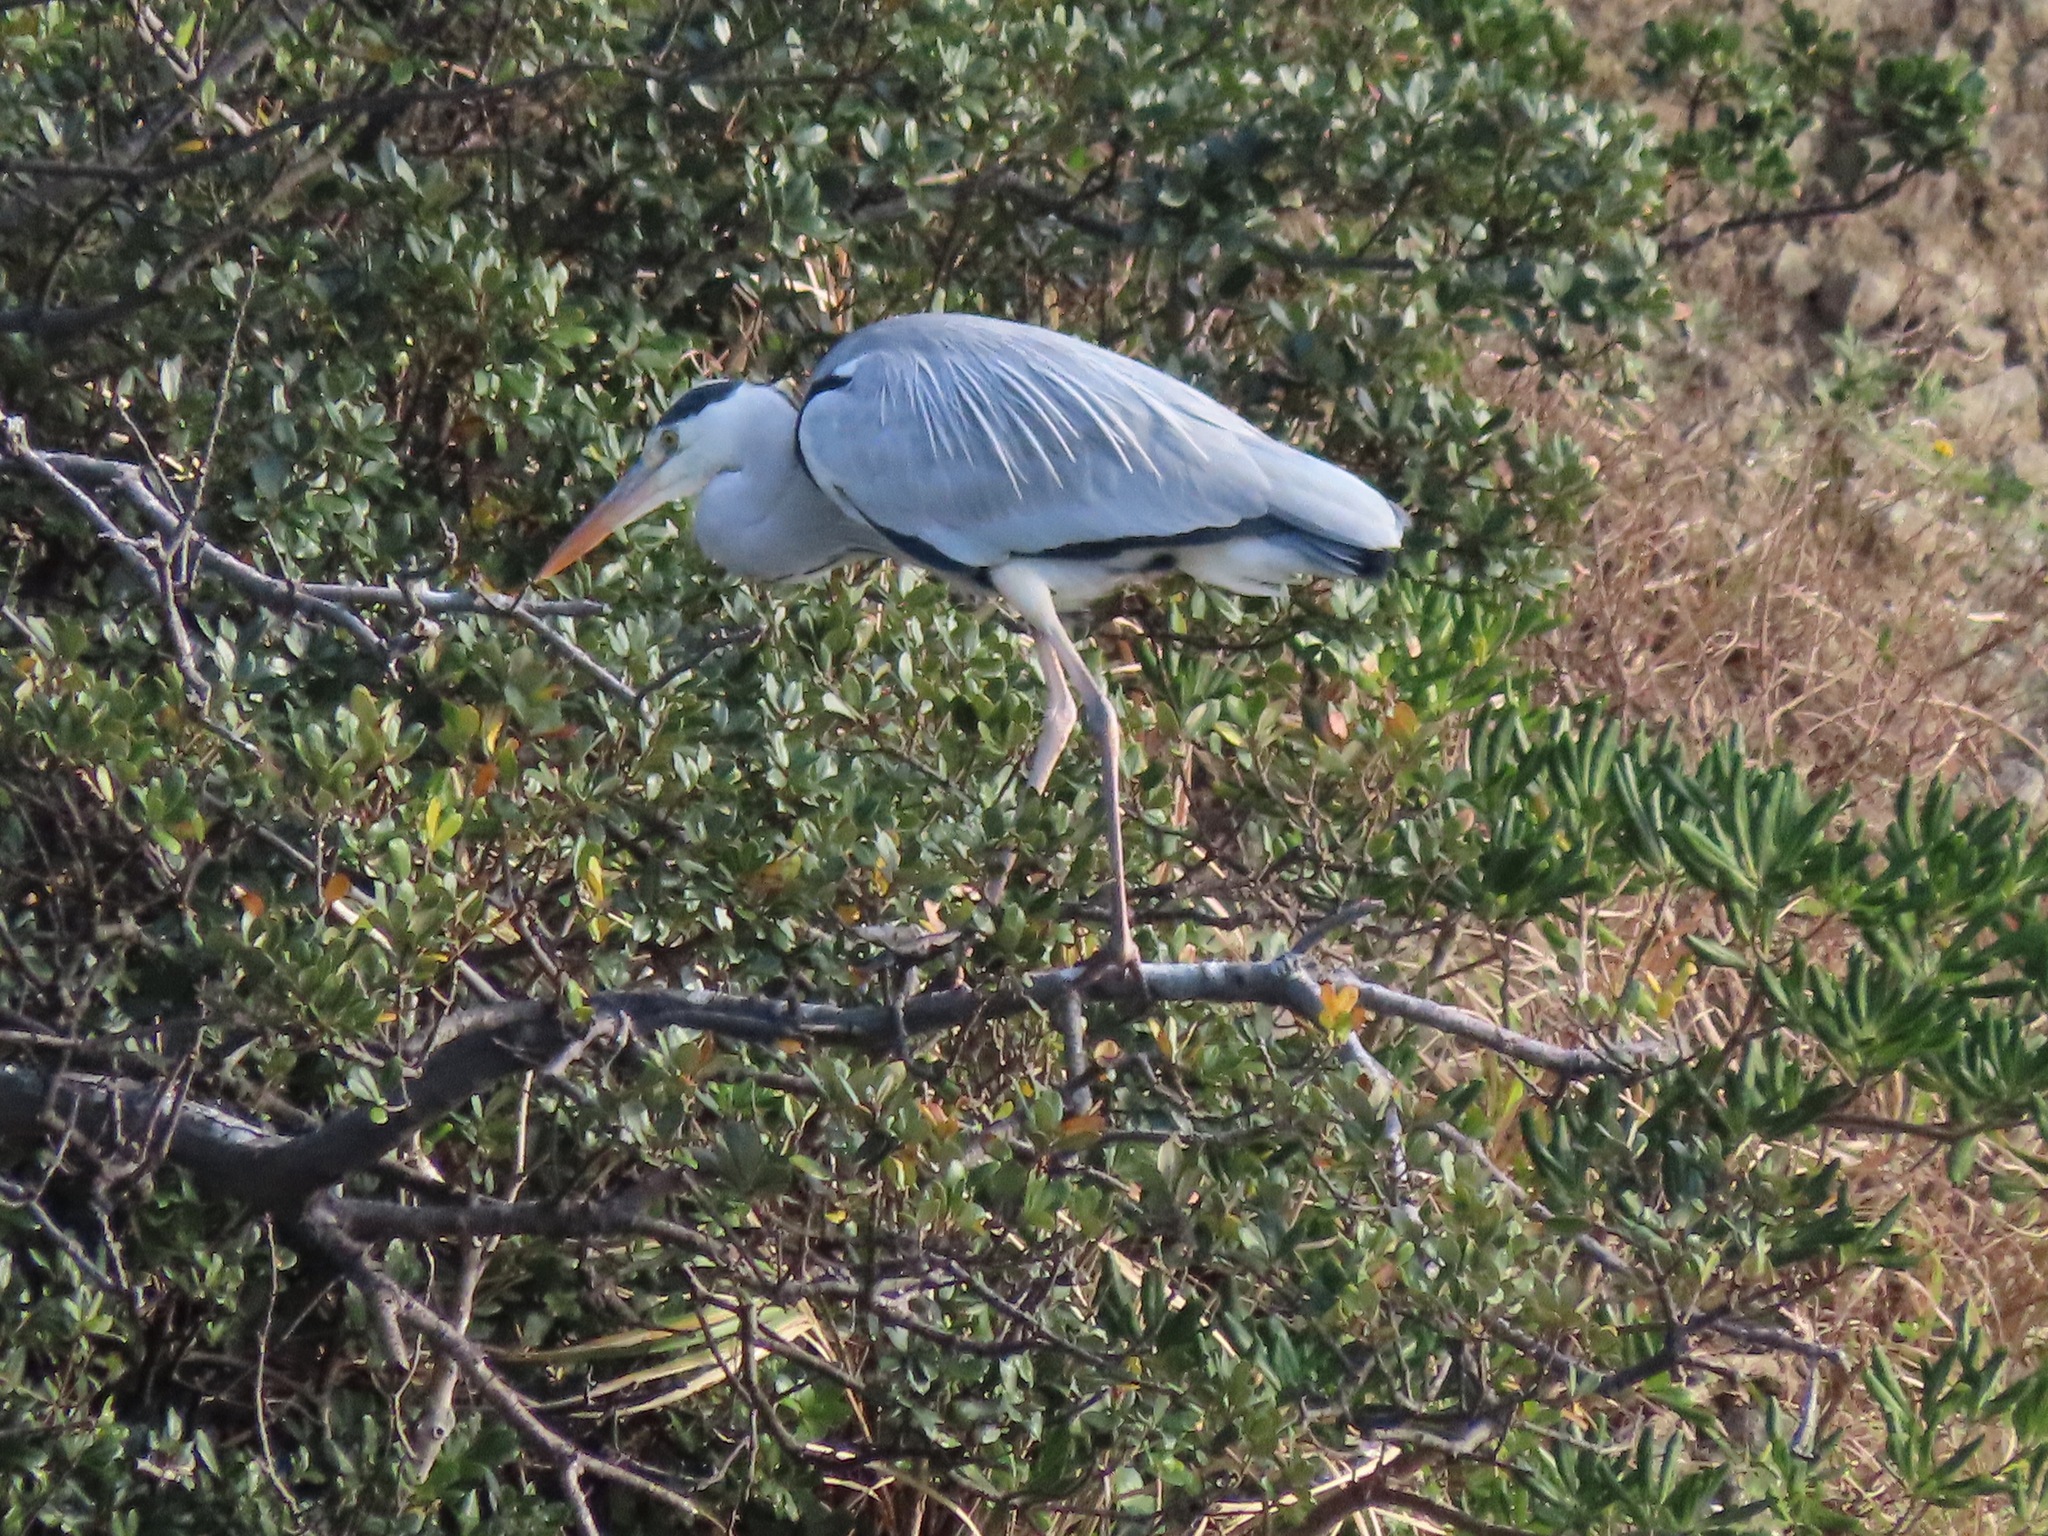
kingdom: Animalia
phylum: Chordata
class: Aves
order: Pelecaniformes
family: Ardeidae
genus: Ardea
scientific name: Ardea cinerea
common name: Grey heron
